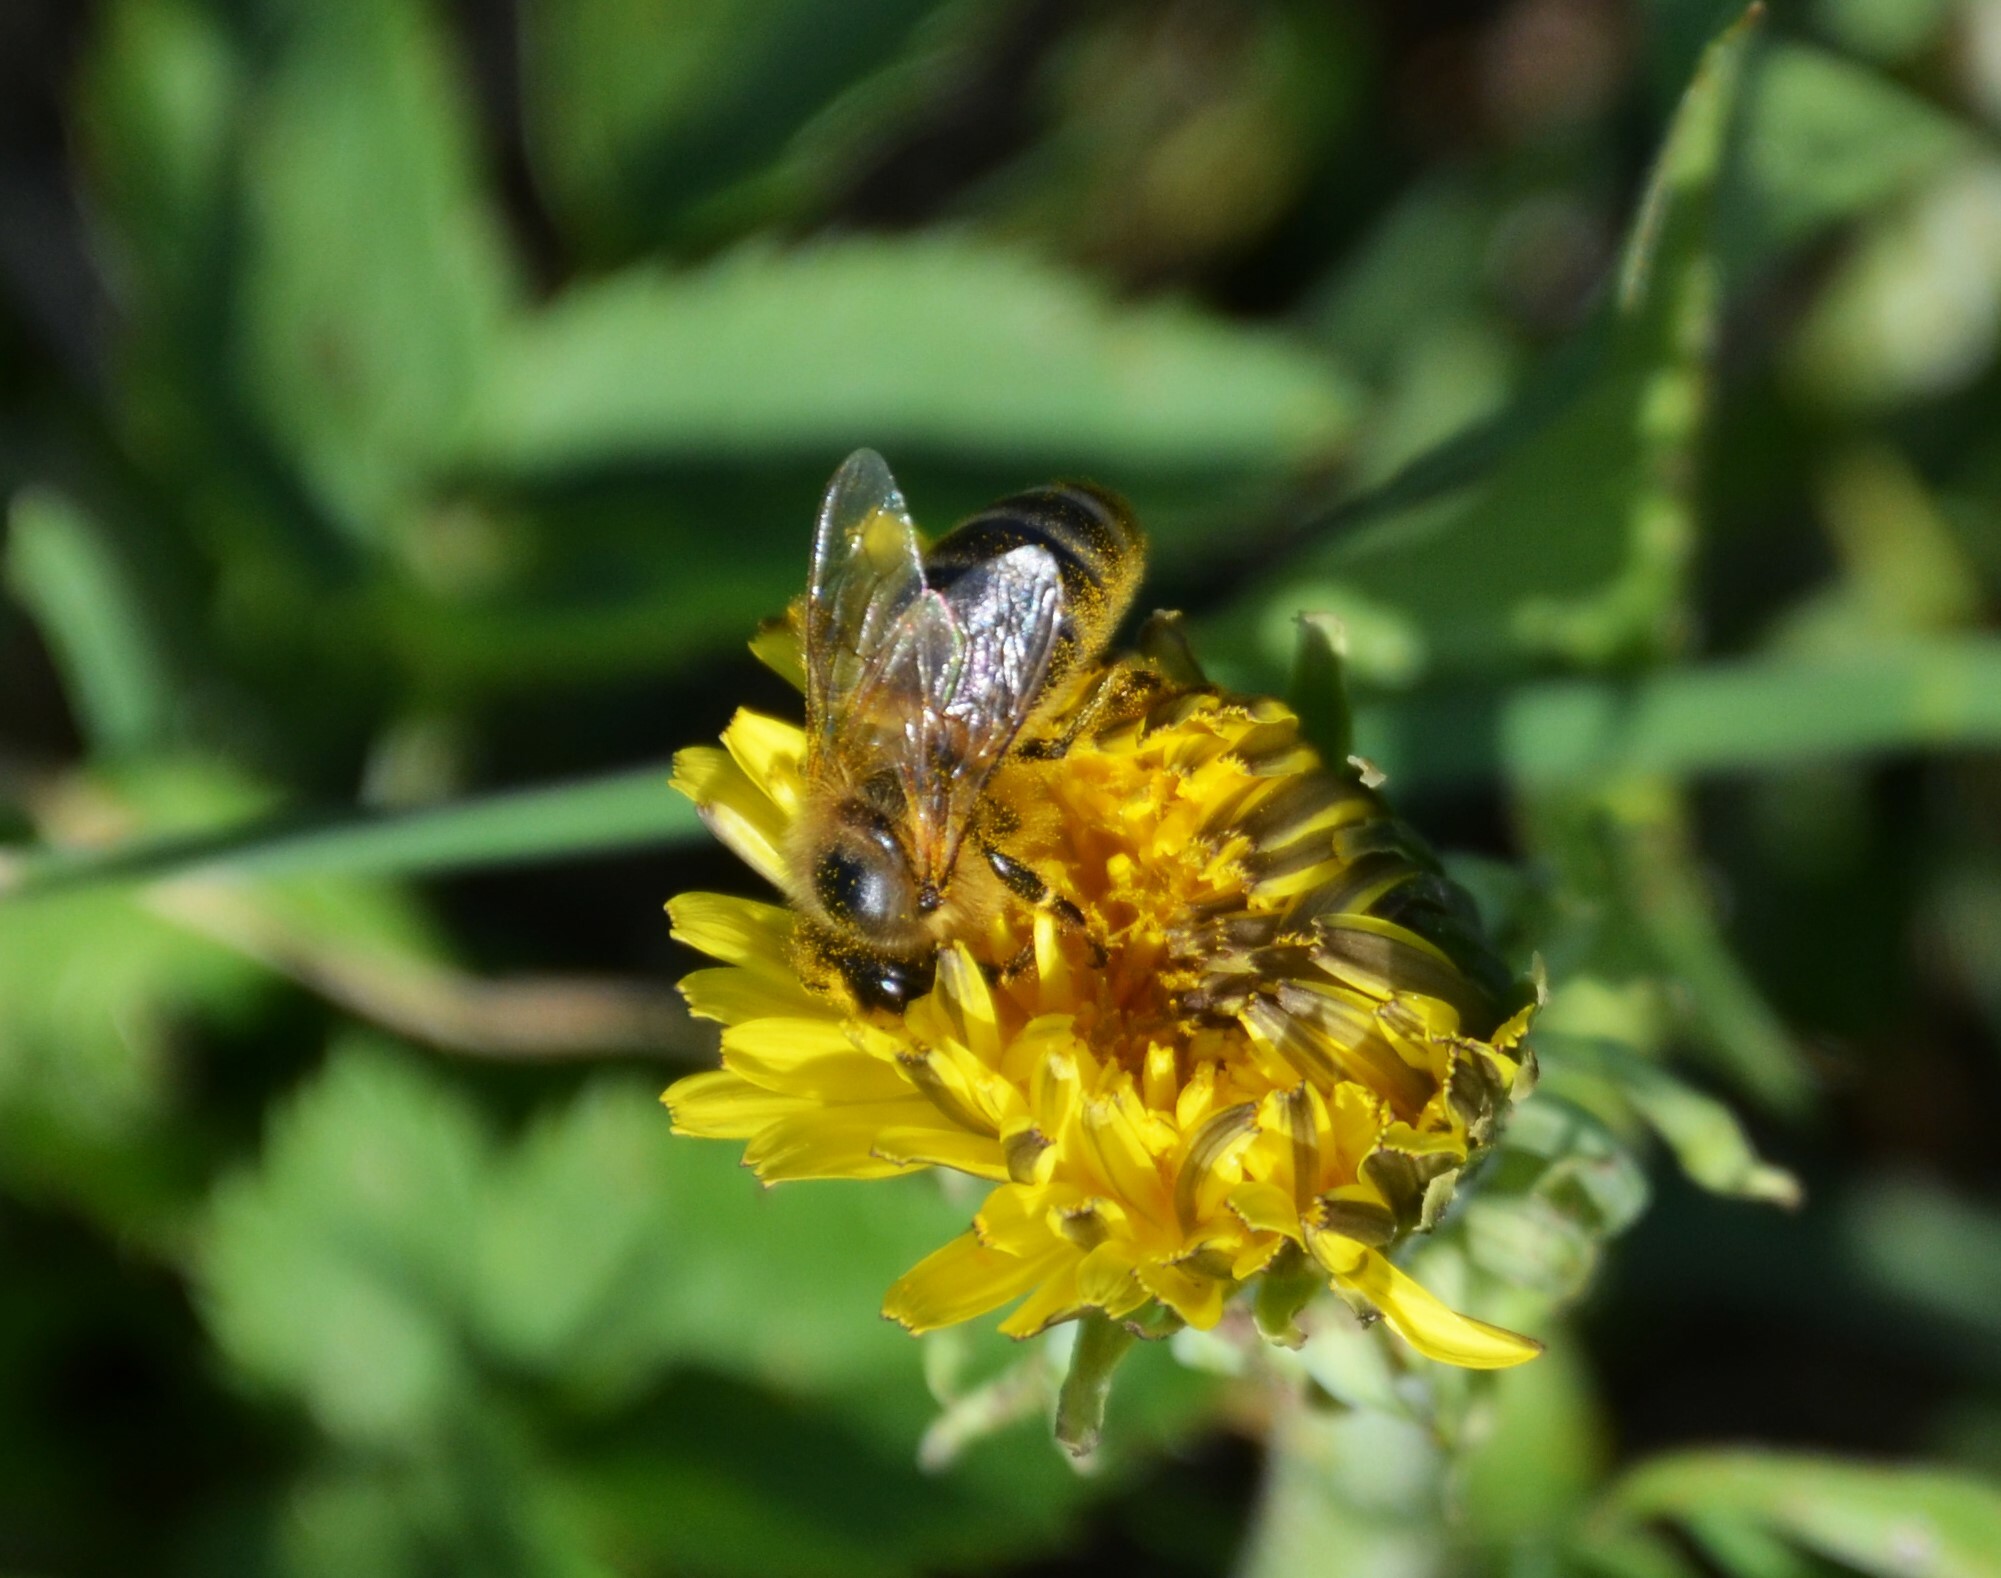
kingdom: Animalia
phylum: Arthropoda
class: Insecta
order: Hymenoptera
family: Apidae
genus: Apis
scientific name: Apis mellifera
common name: Honey bee
